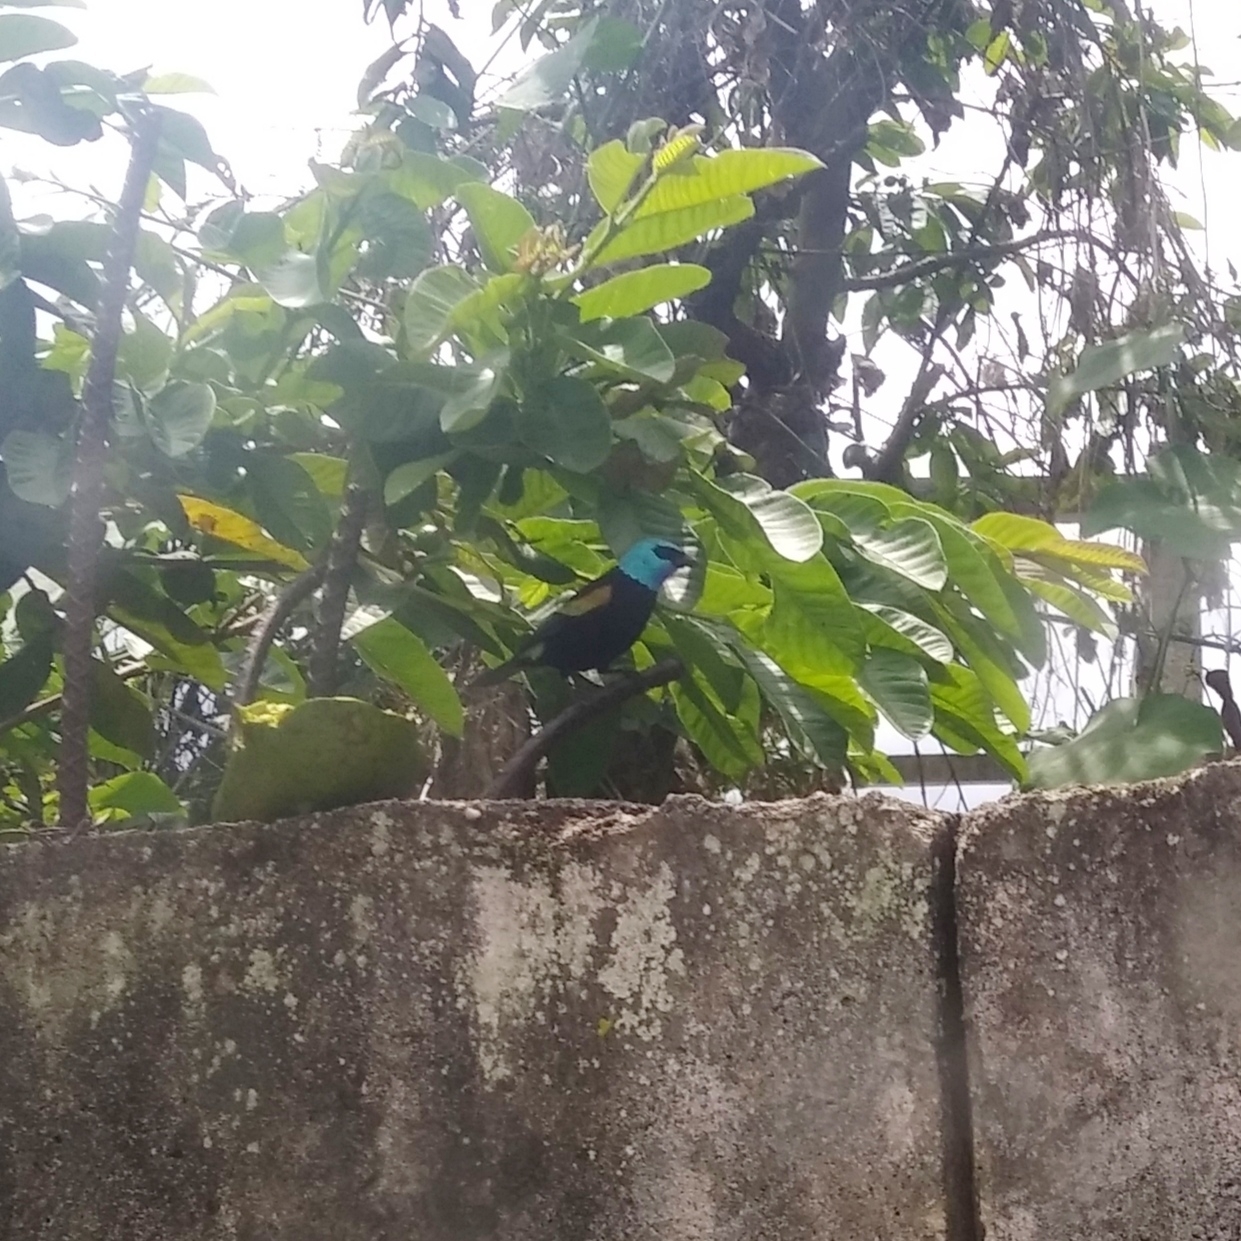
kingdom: Animalia
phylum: Chordata
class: Aves
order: Passeriformes
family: Thraupidae
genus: Stilpnia
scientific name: Stilpnia cyanicollis
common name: Blue-necked tanager
